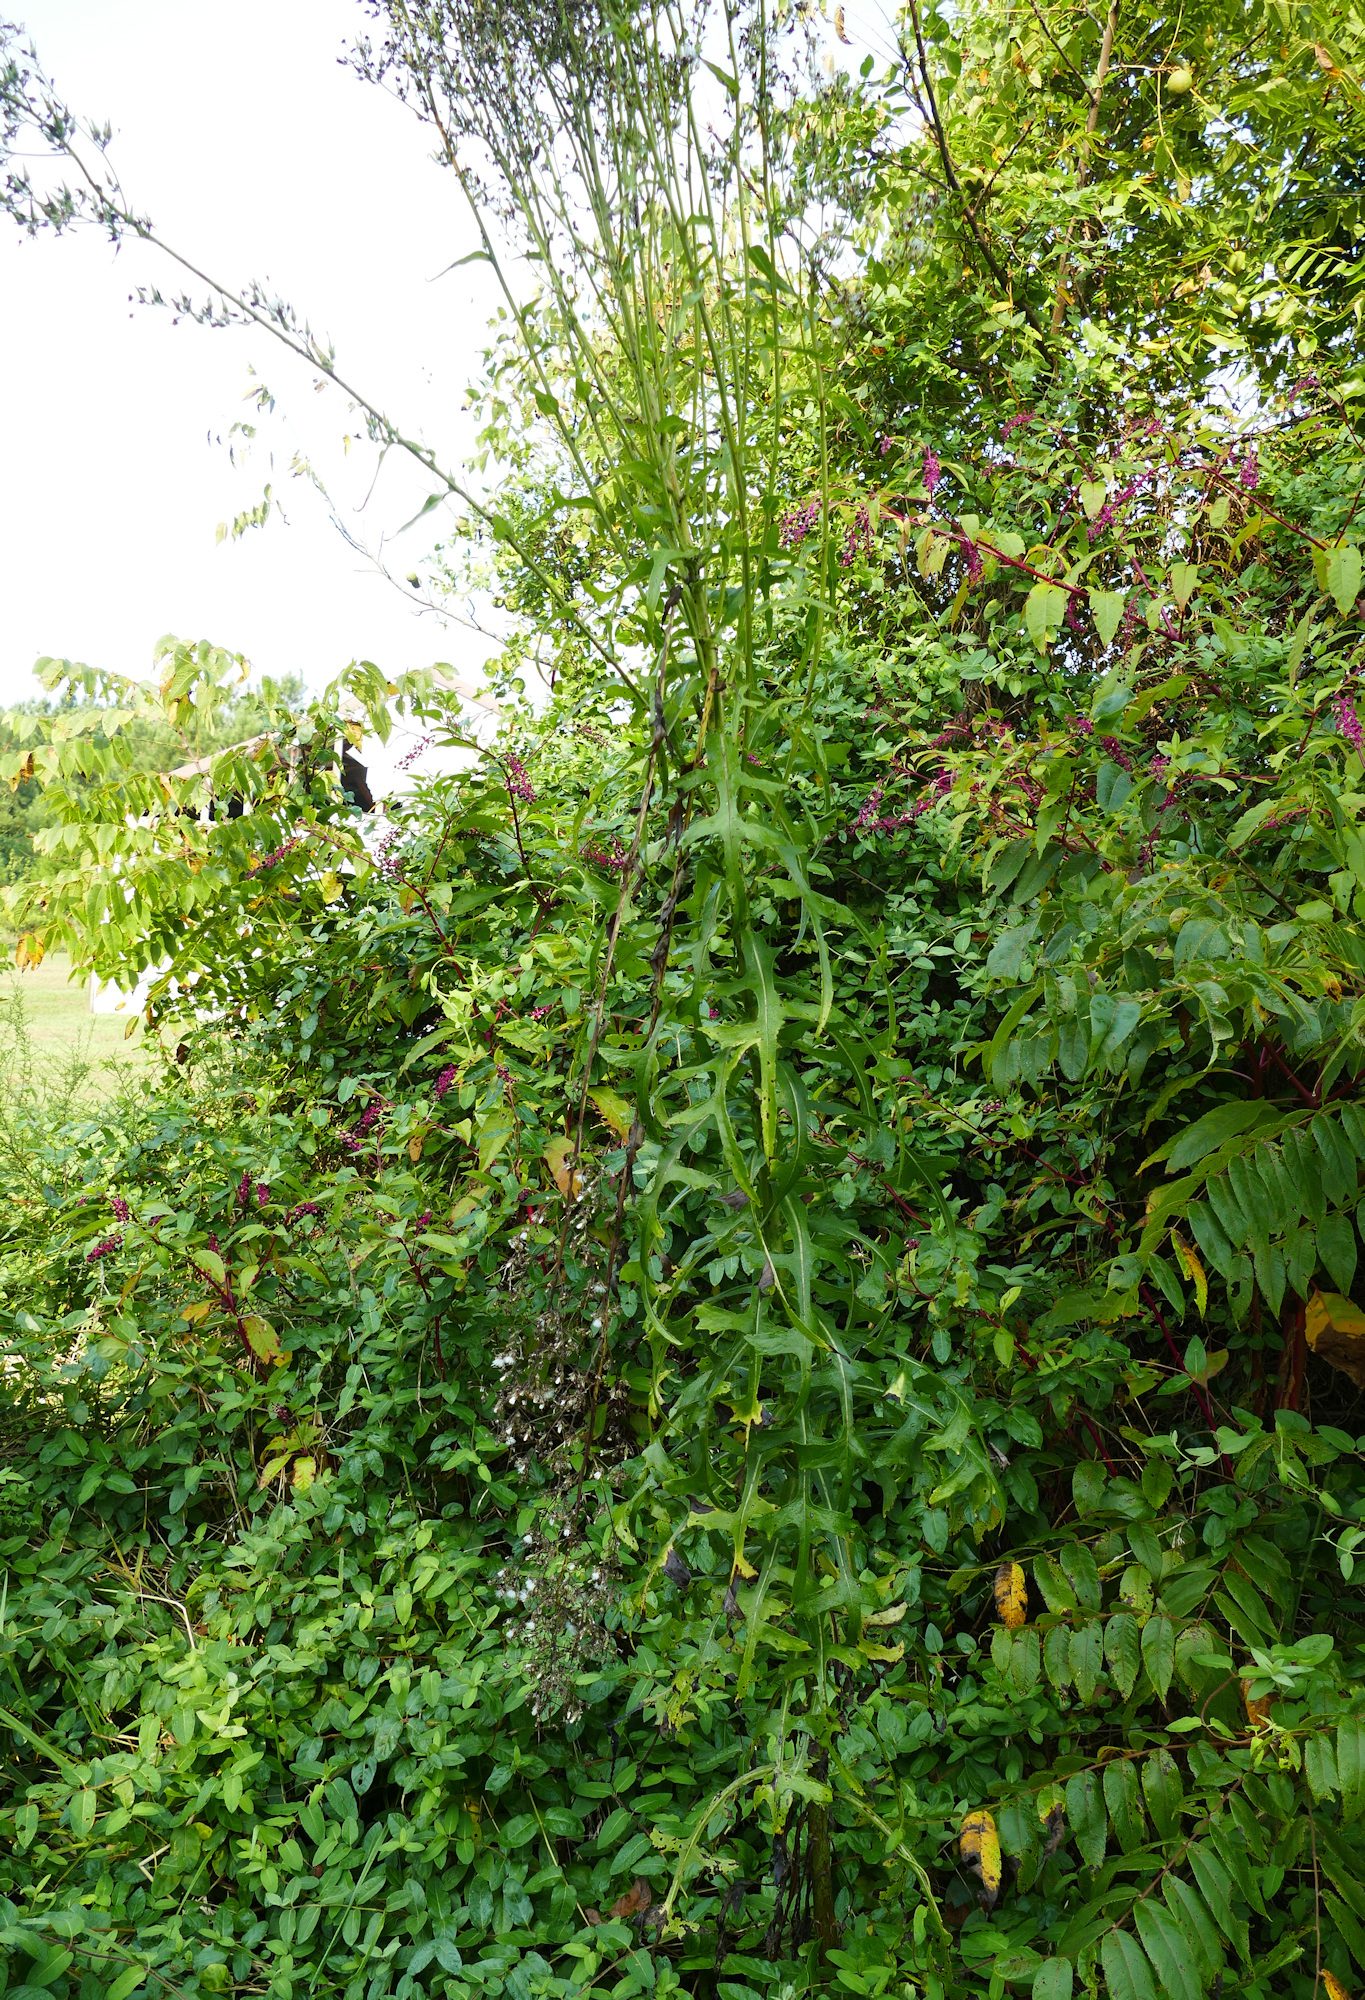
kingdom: Plantae
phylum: Tracheophyta
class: Magnoliopsida
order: Asterales
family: Asteraceae
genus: Lactuca
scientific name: Lactuca canadensis
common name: Canada lettuce
